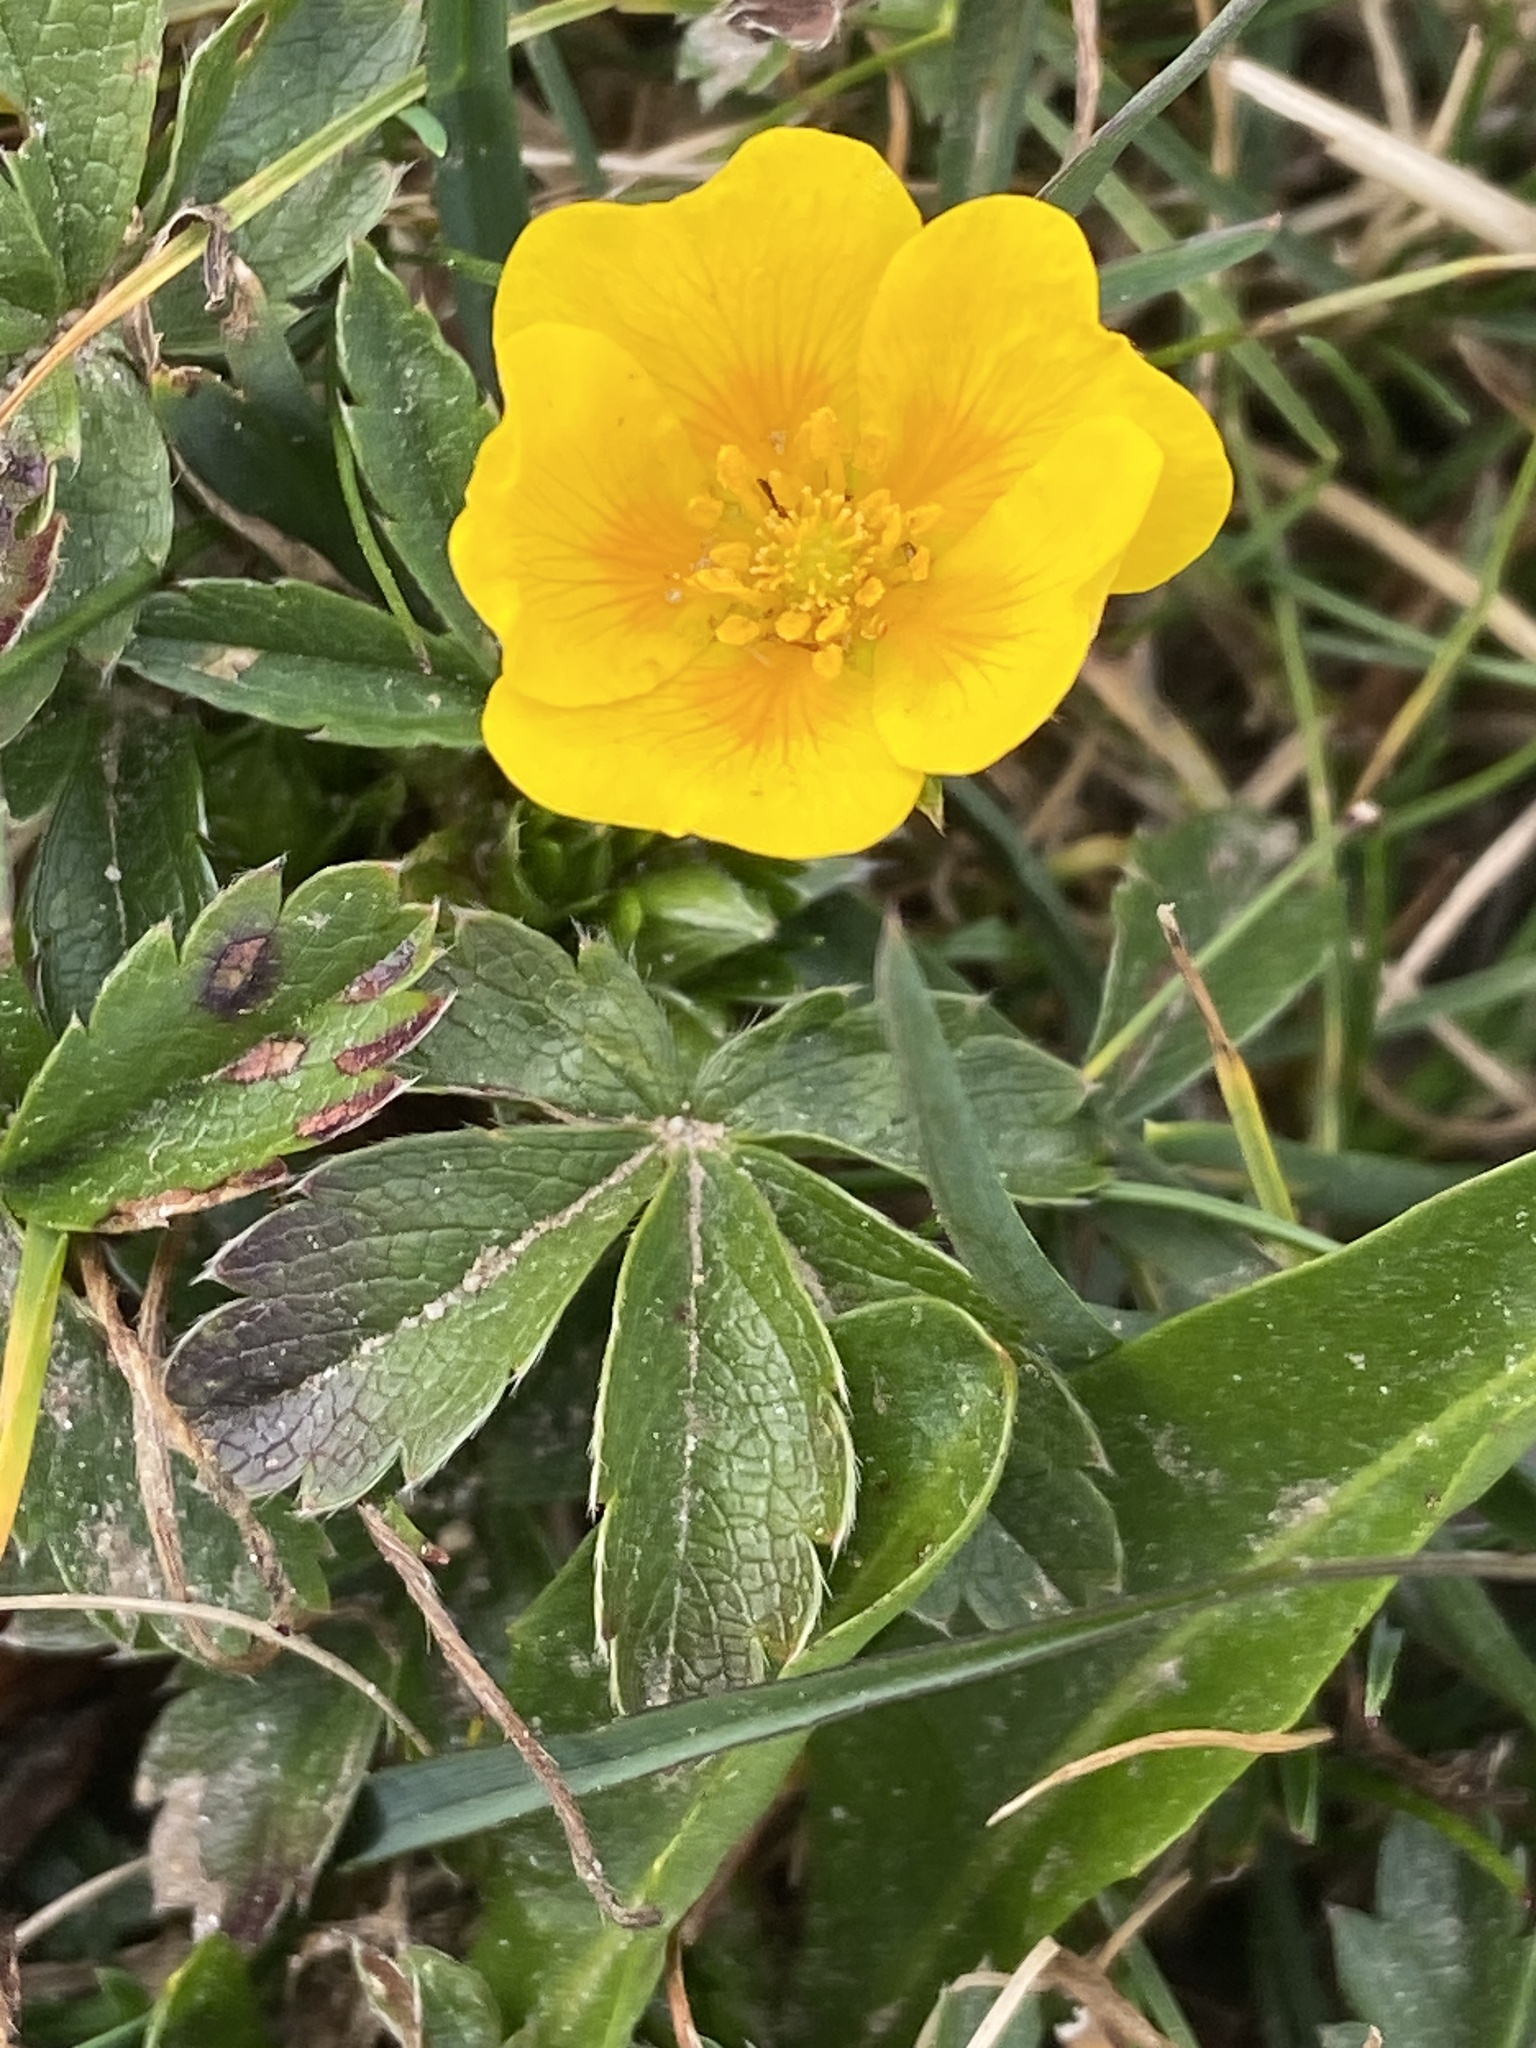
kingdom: Plantae
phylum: Tracheophyta
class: Magnoliopsida
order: Rosales
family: Rosaceae
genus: Potentilla
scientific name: Potentilla aurea
